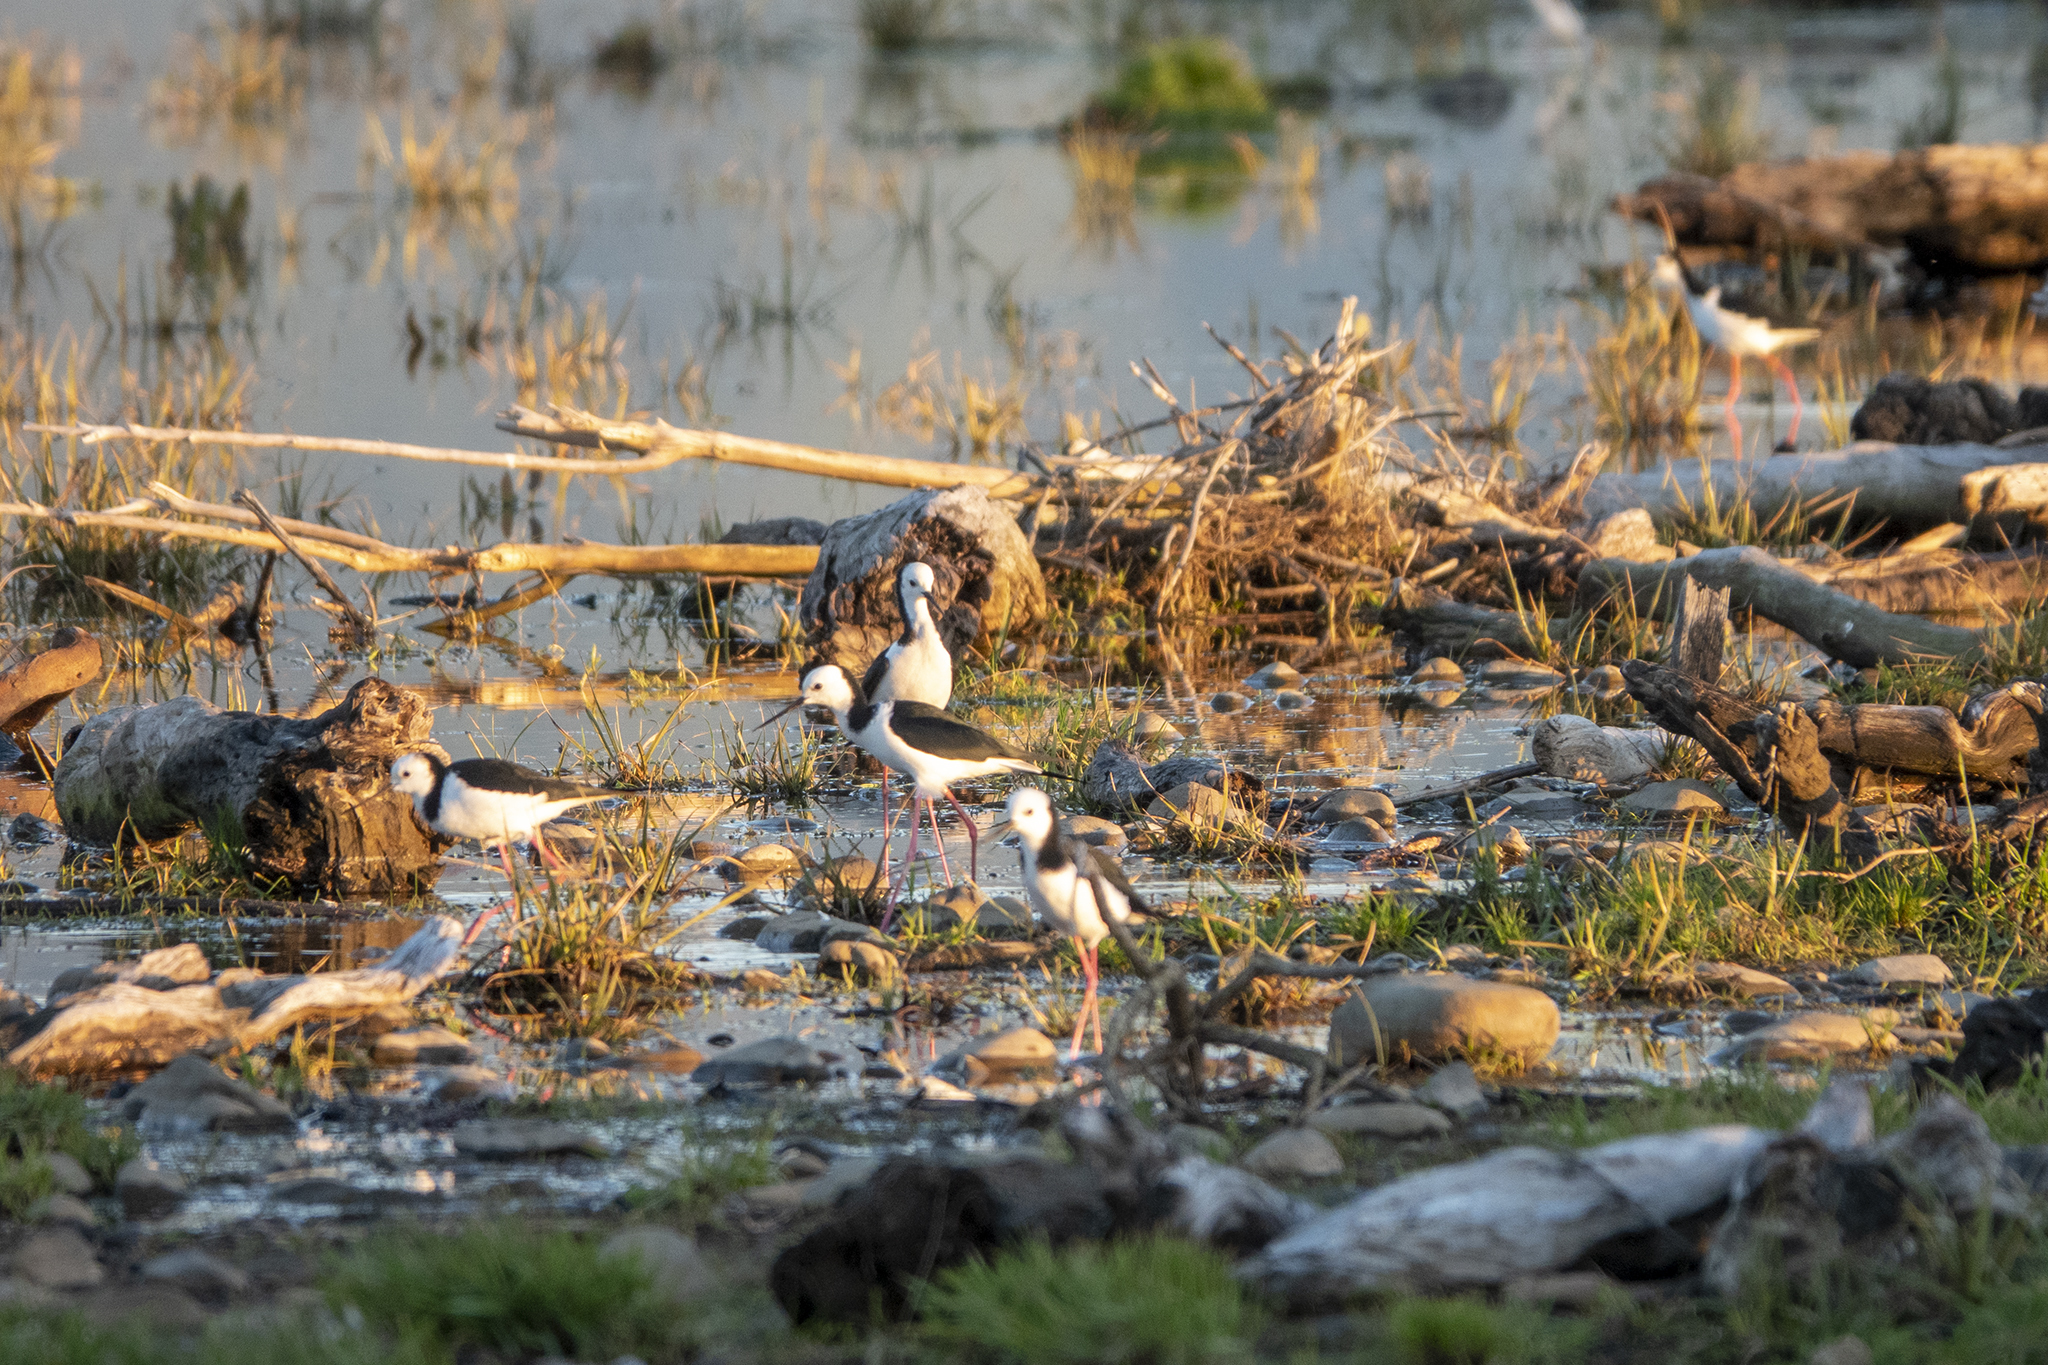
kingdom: Animalia
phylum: Chordata
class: Aves
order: Charadriiformes
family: Recurvirostridae
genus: Himantopus
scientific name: Himantopus leucocephalus
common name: White-headed stilt
